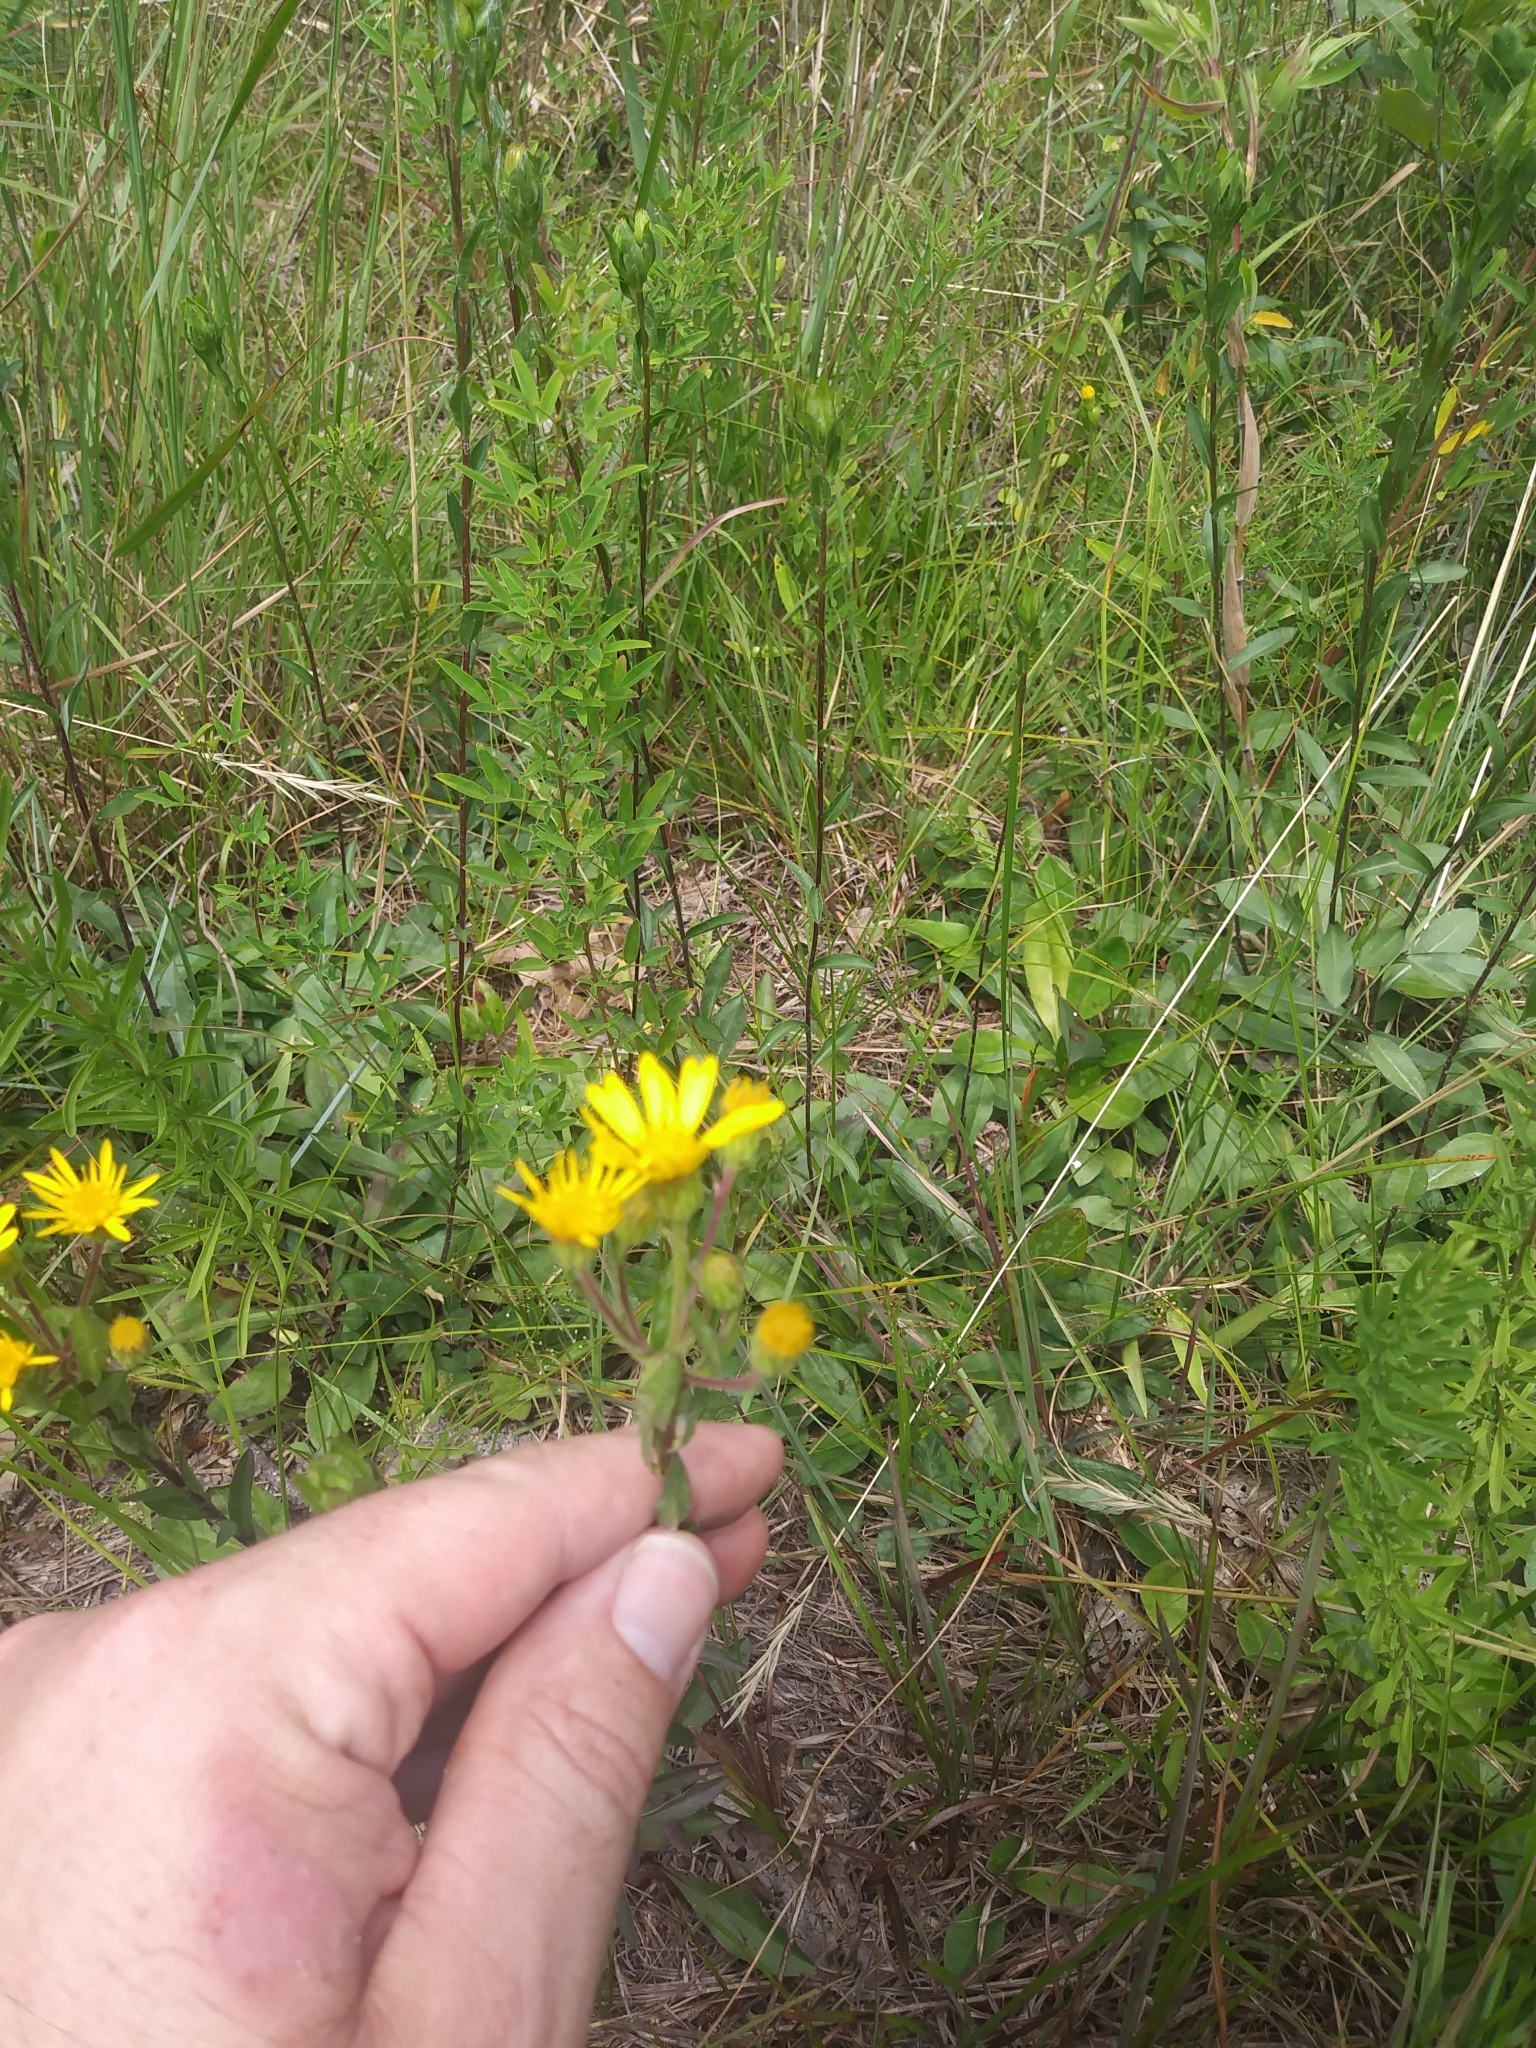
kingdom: Plantae
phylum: Tracheophyta
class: Magnoliopsida
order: Asterales
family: Asteraceae
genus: Chrysopsis
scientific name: Chrysopsis mariana
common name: Maryland golden-aster
